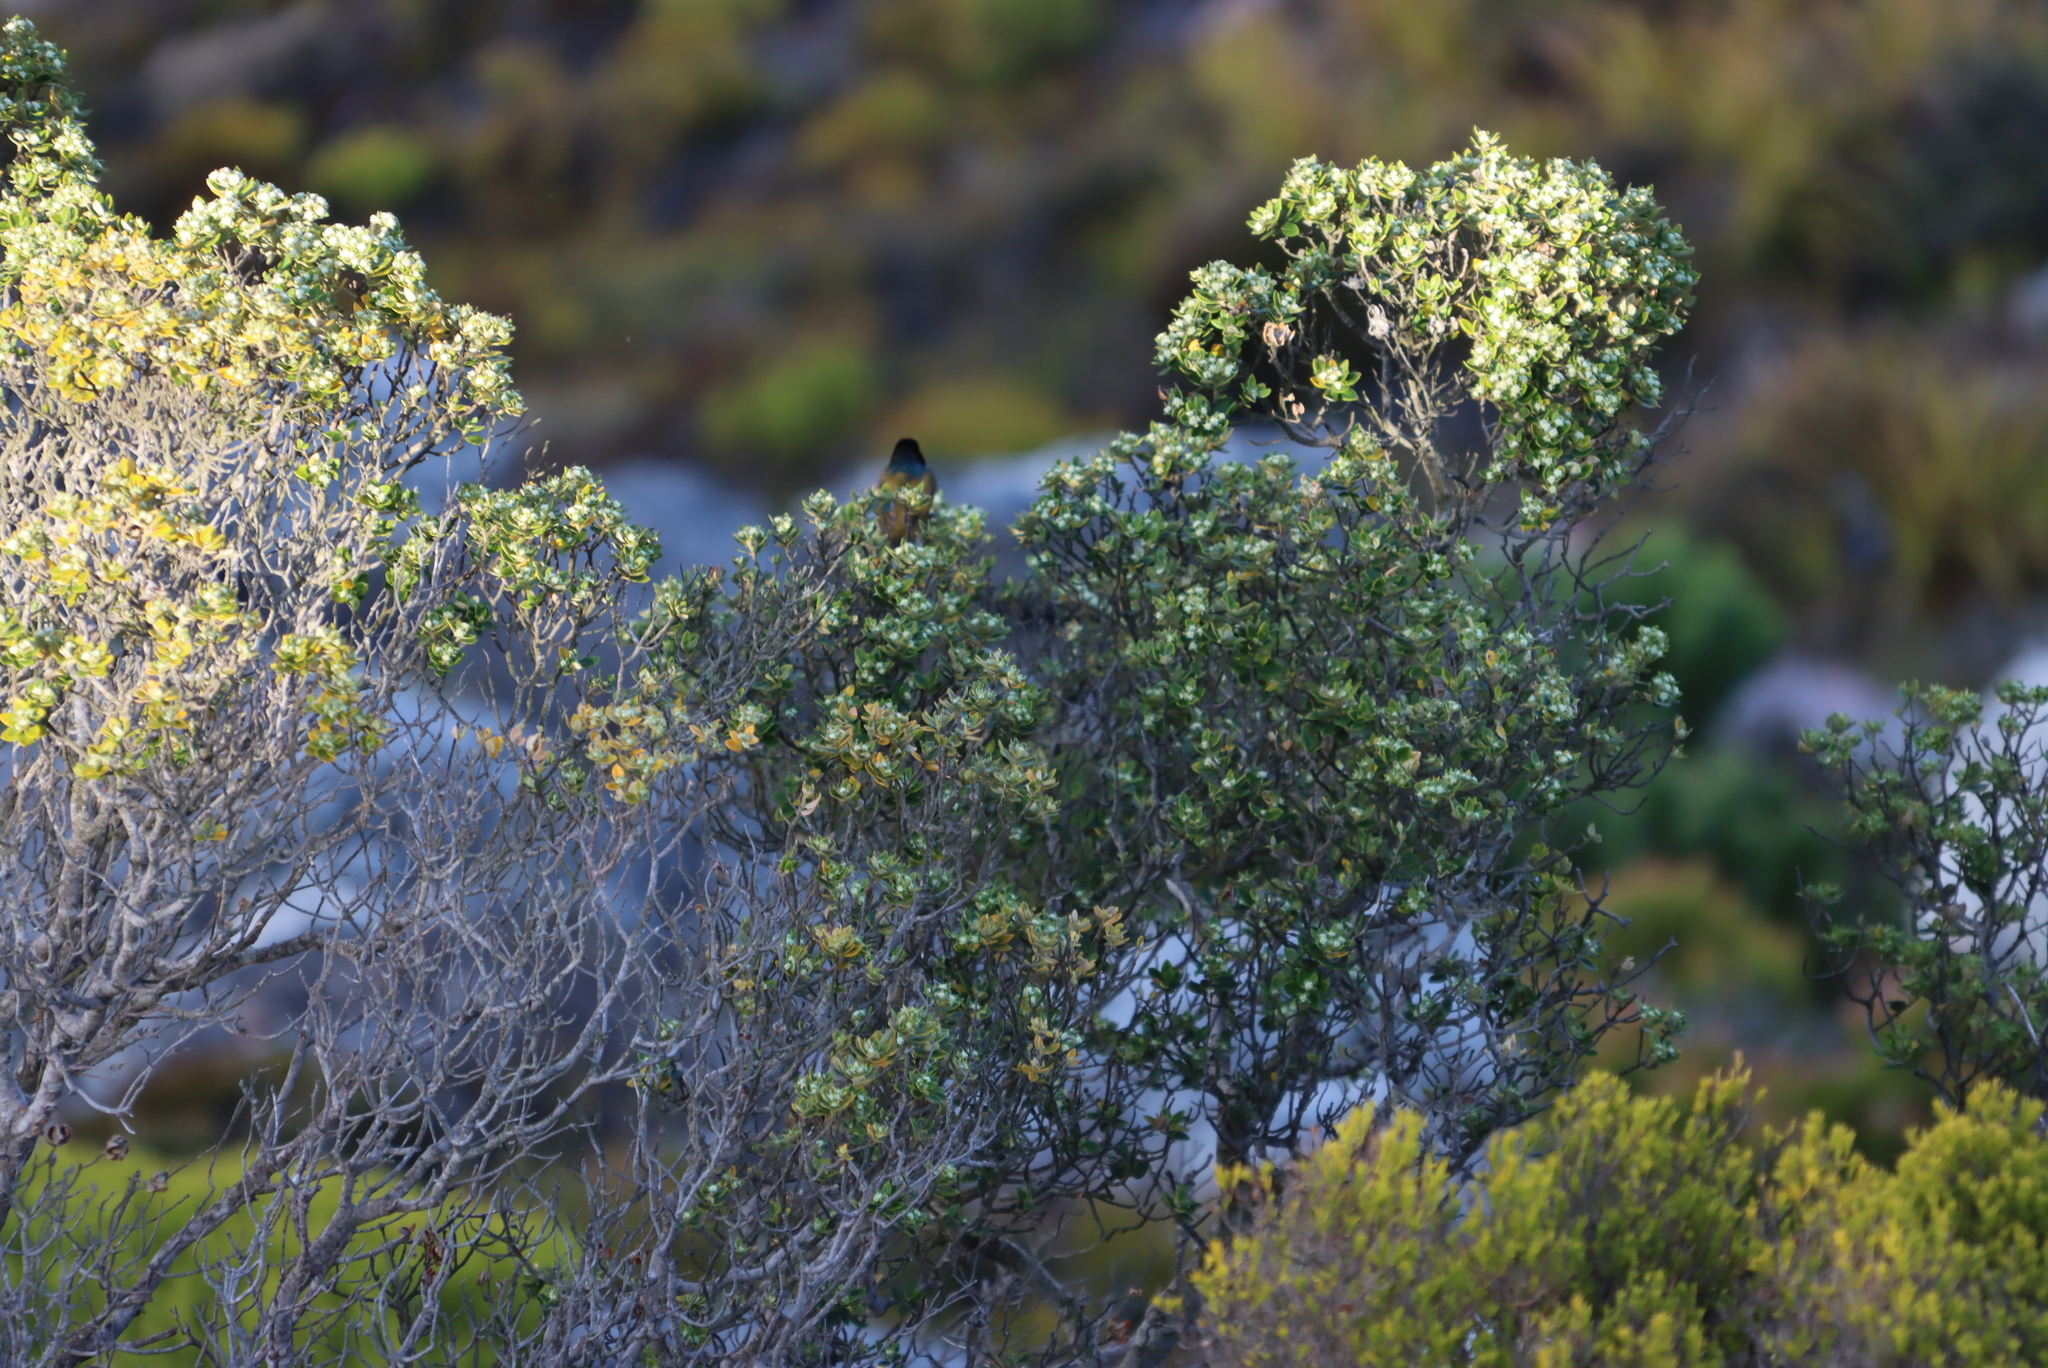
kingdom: Plantae
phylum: Tracheophyta
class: Magnoliopsida
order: Rosales
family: Rhamnaceae
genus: Phylica
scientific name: Phylica buxifolia
